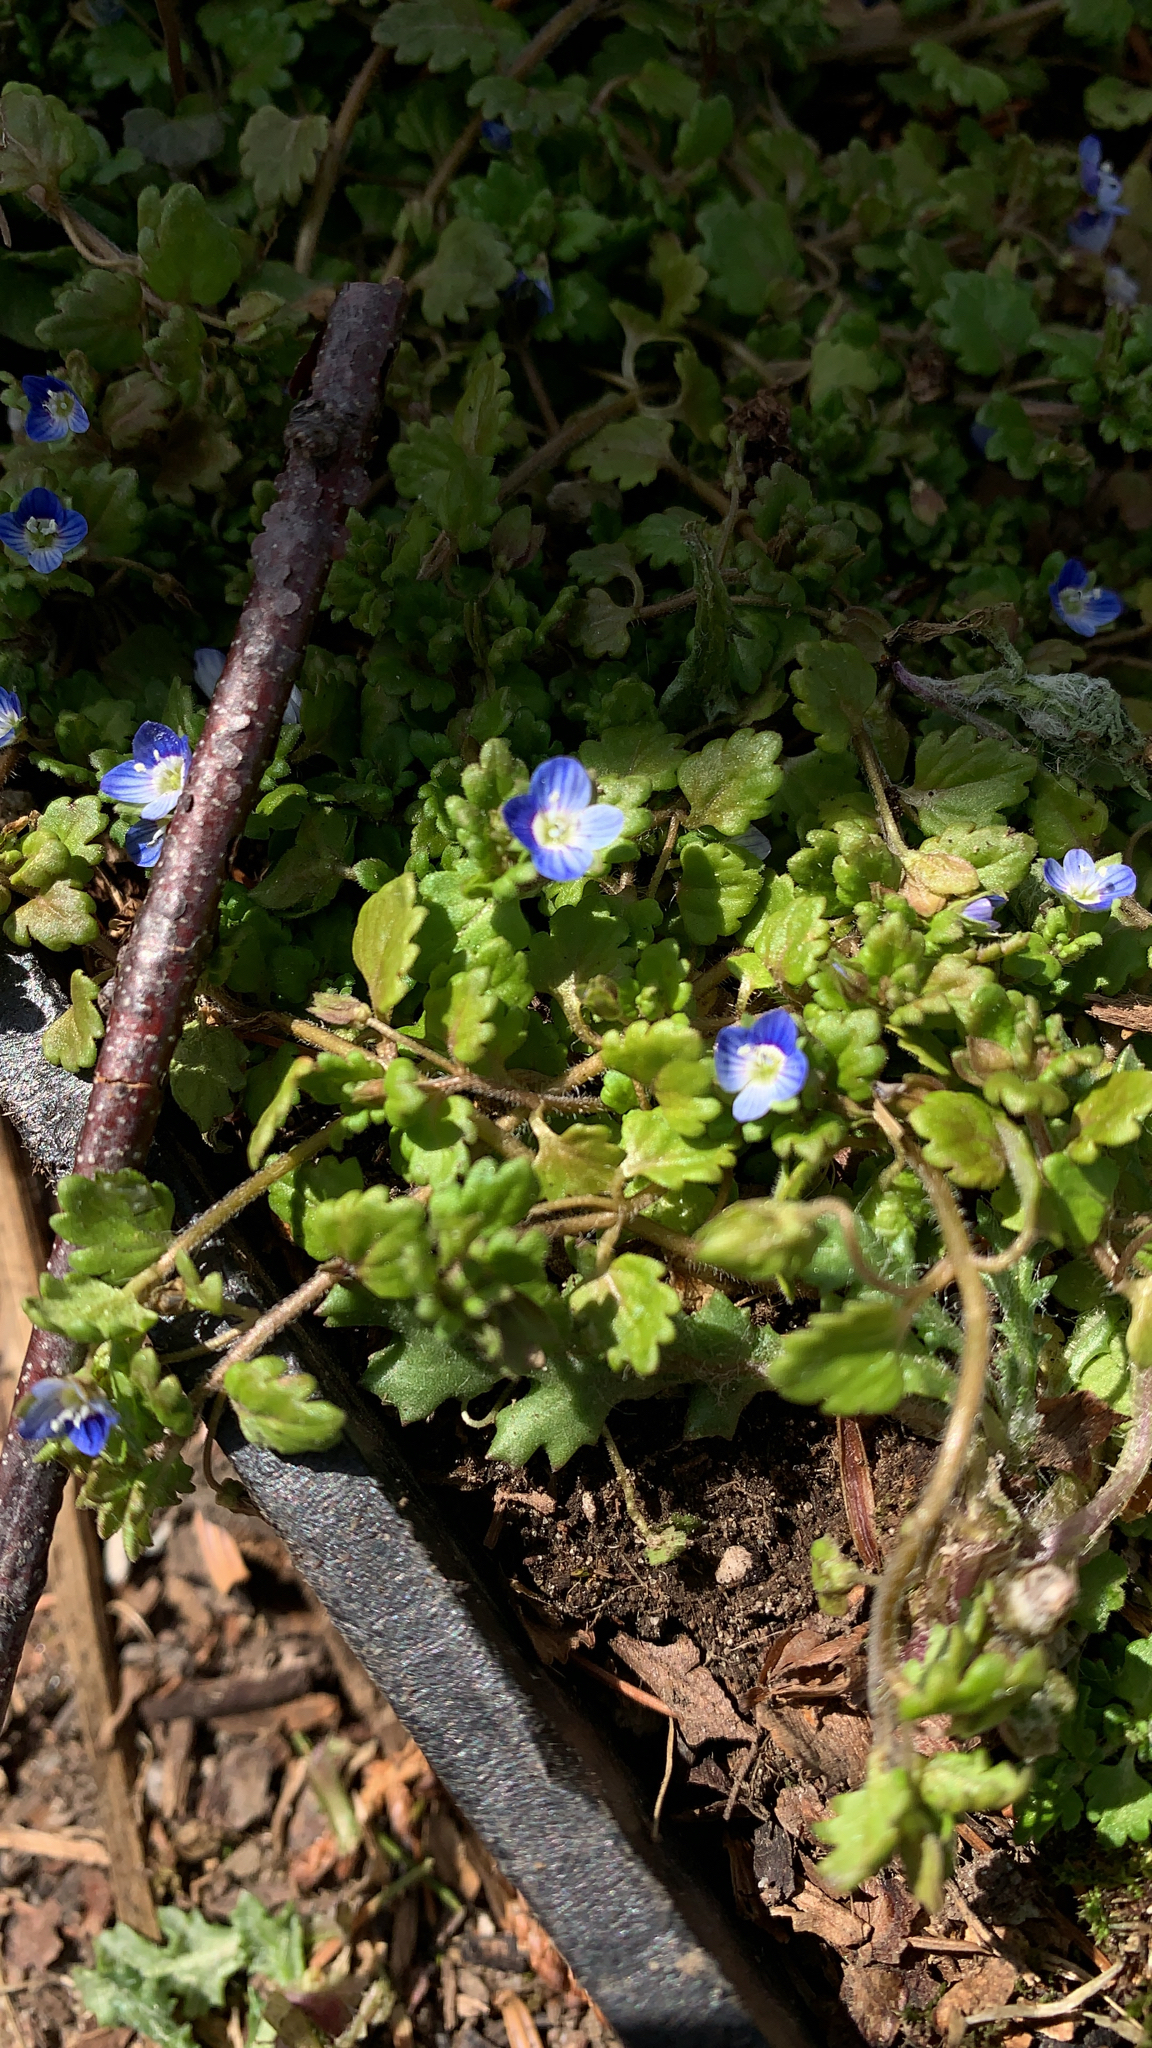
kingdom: Plantae
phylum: Tracheophyta
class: Magnoliopsida
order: Lamiales
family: Plantaginaceae
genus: Veronica
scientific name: Veronica polita
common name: Grey field-speedwell
